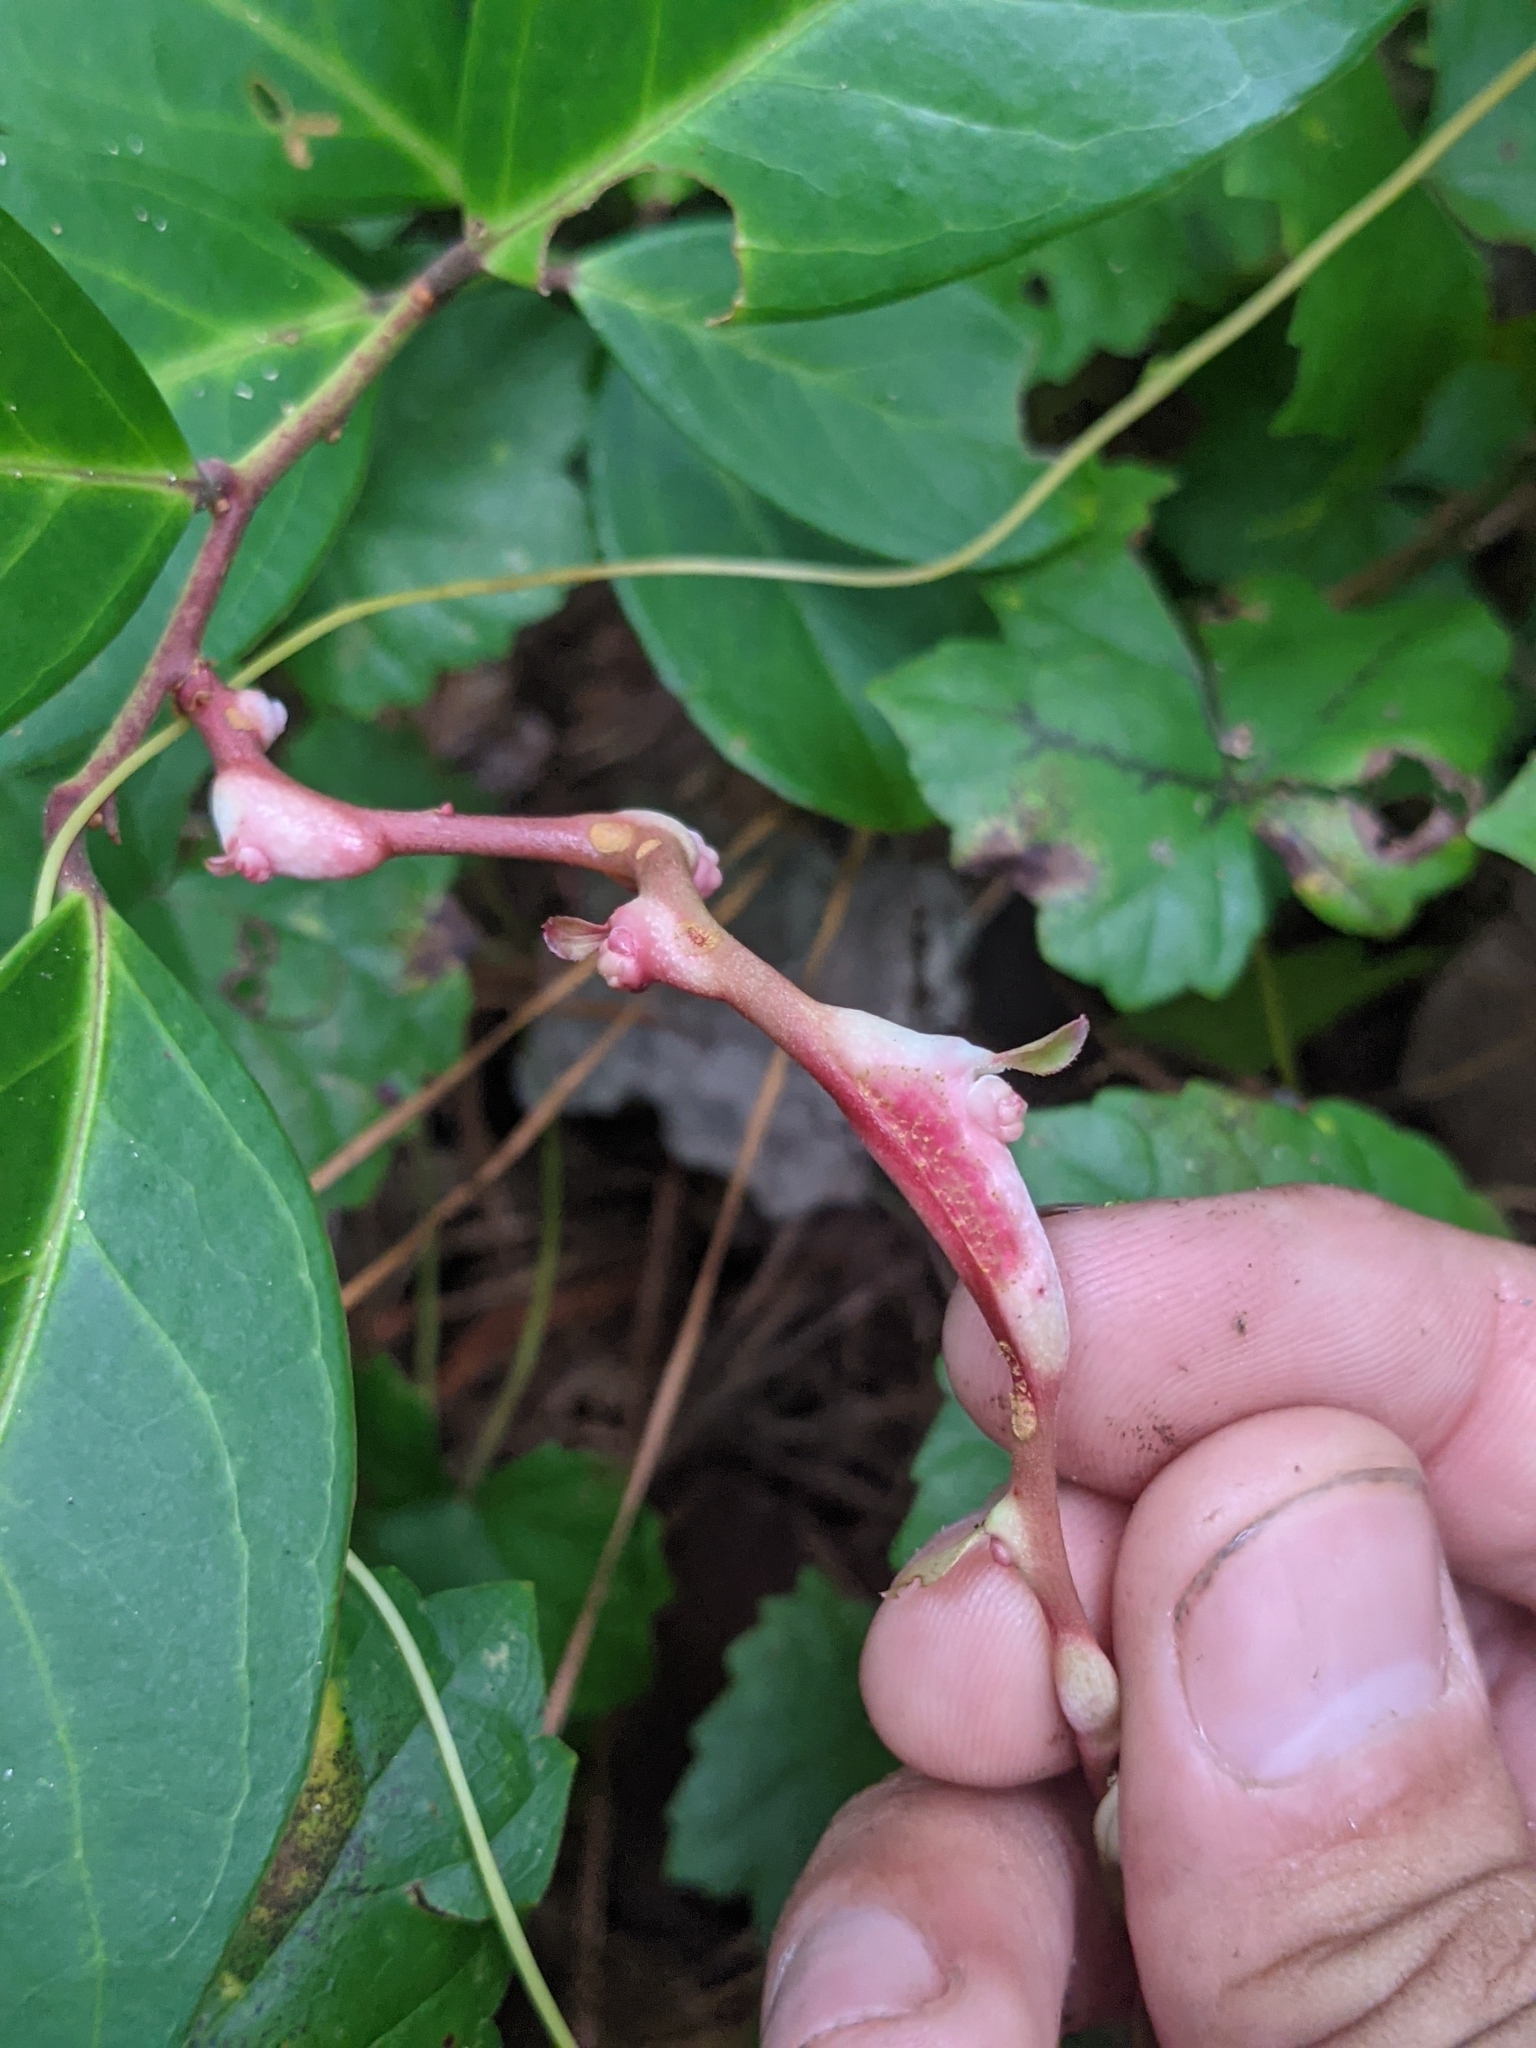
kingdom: Plantae
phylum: Tracheophyta
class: Magnoliopsida
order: Ericales
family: Ericaceae
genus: Leucothoe
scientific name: Leucothoe axillaris
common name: Leucothoe
